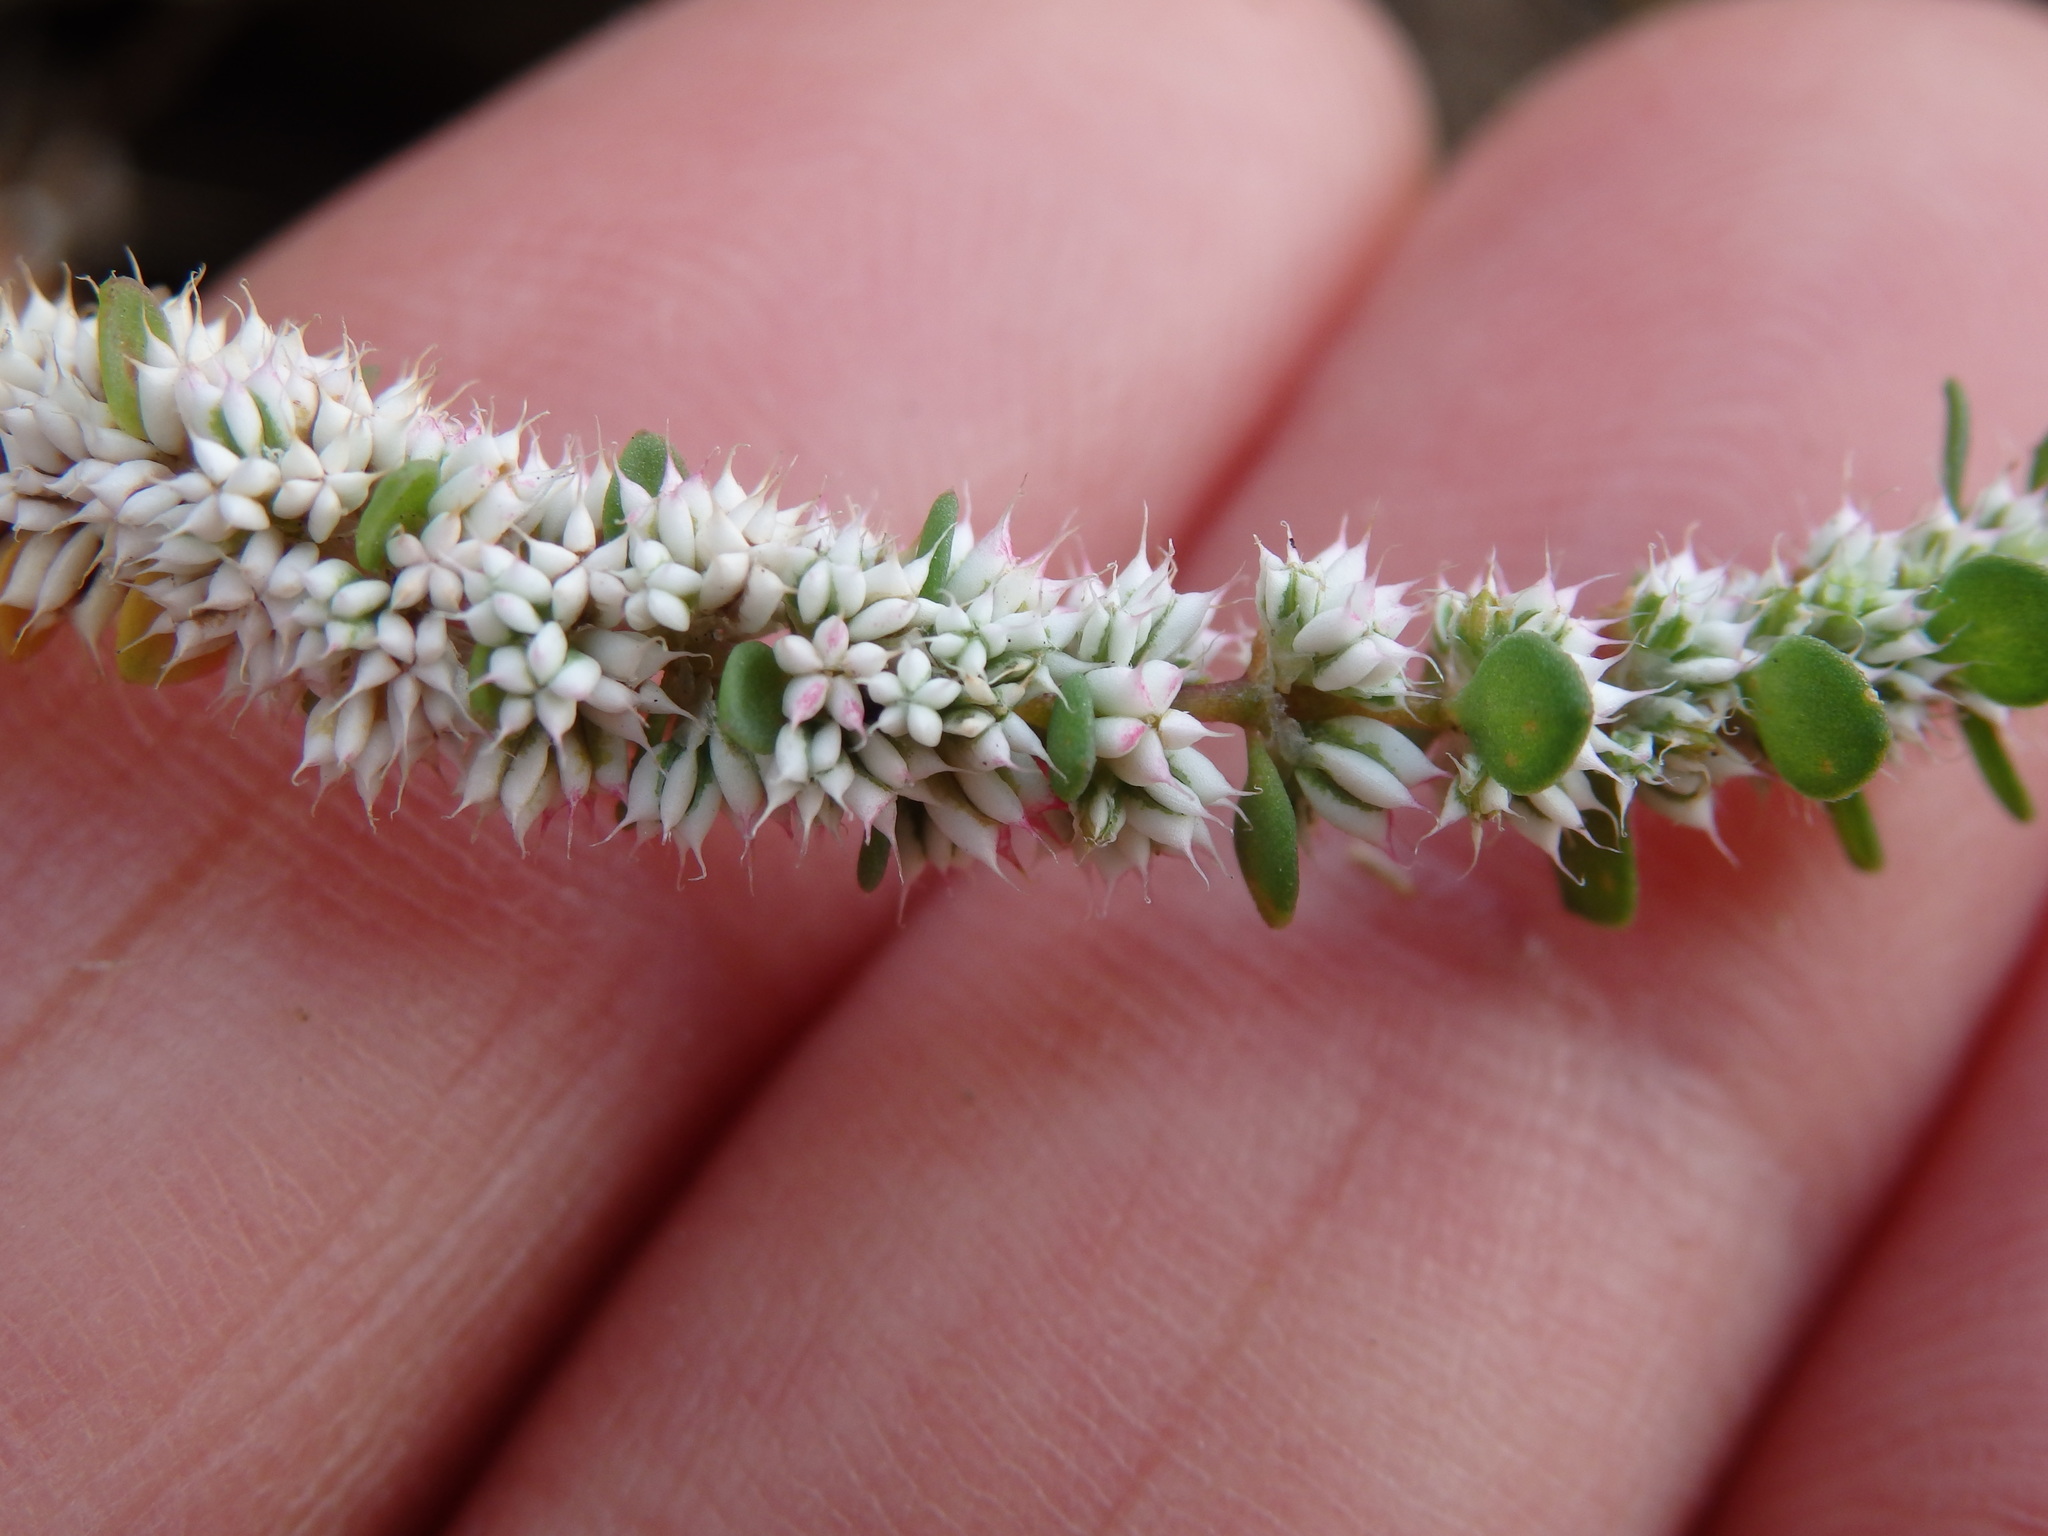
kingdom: Plantae
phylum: Tracheophyta
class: Magnoliopsida
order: Caryophyllales
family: Caryophyllaceae
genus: Illecebrum
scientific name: Illecebrum verticillatum
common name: Coral necklace
